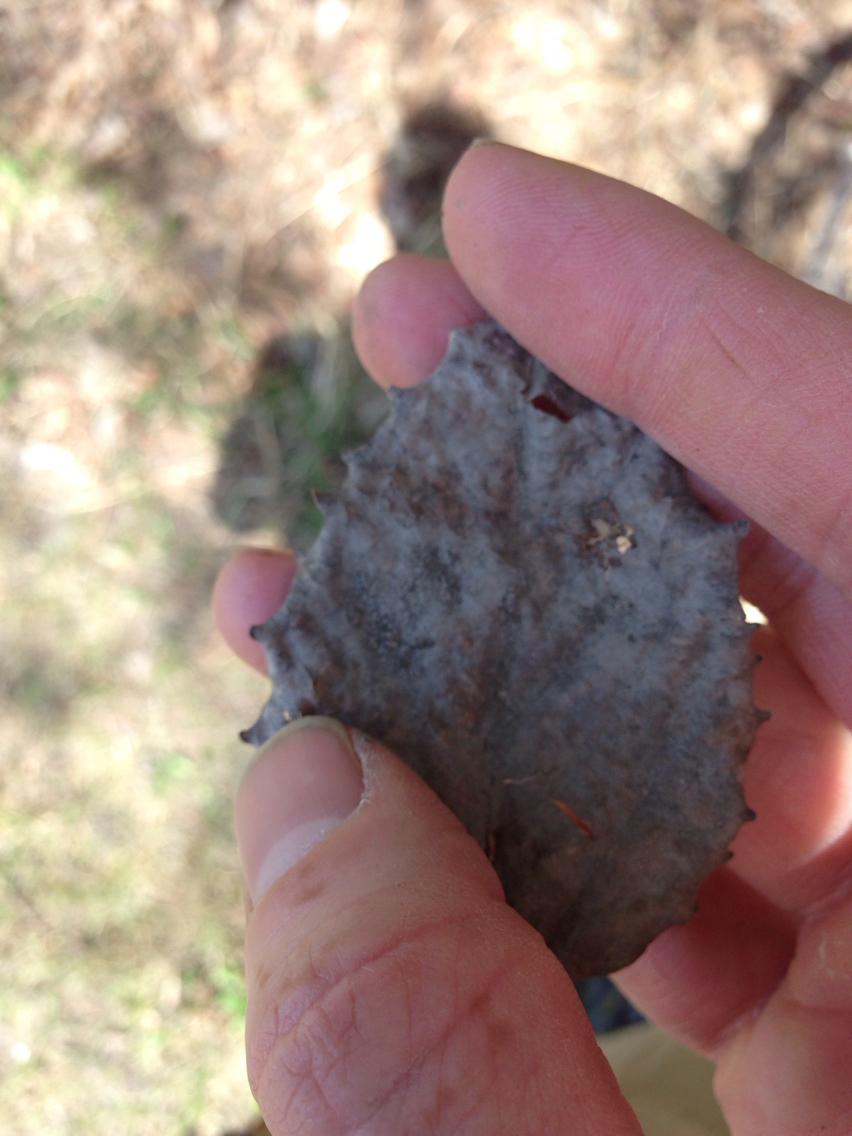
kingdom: Plantae
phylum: Tracheophyta
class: Magnoliopsida
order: Malpighiales
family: Salicaceae
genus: Populus
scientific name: Populus grandidentata
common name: Bigtooth aspen
